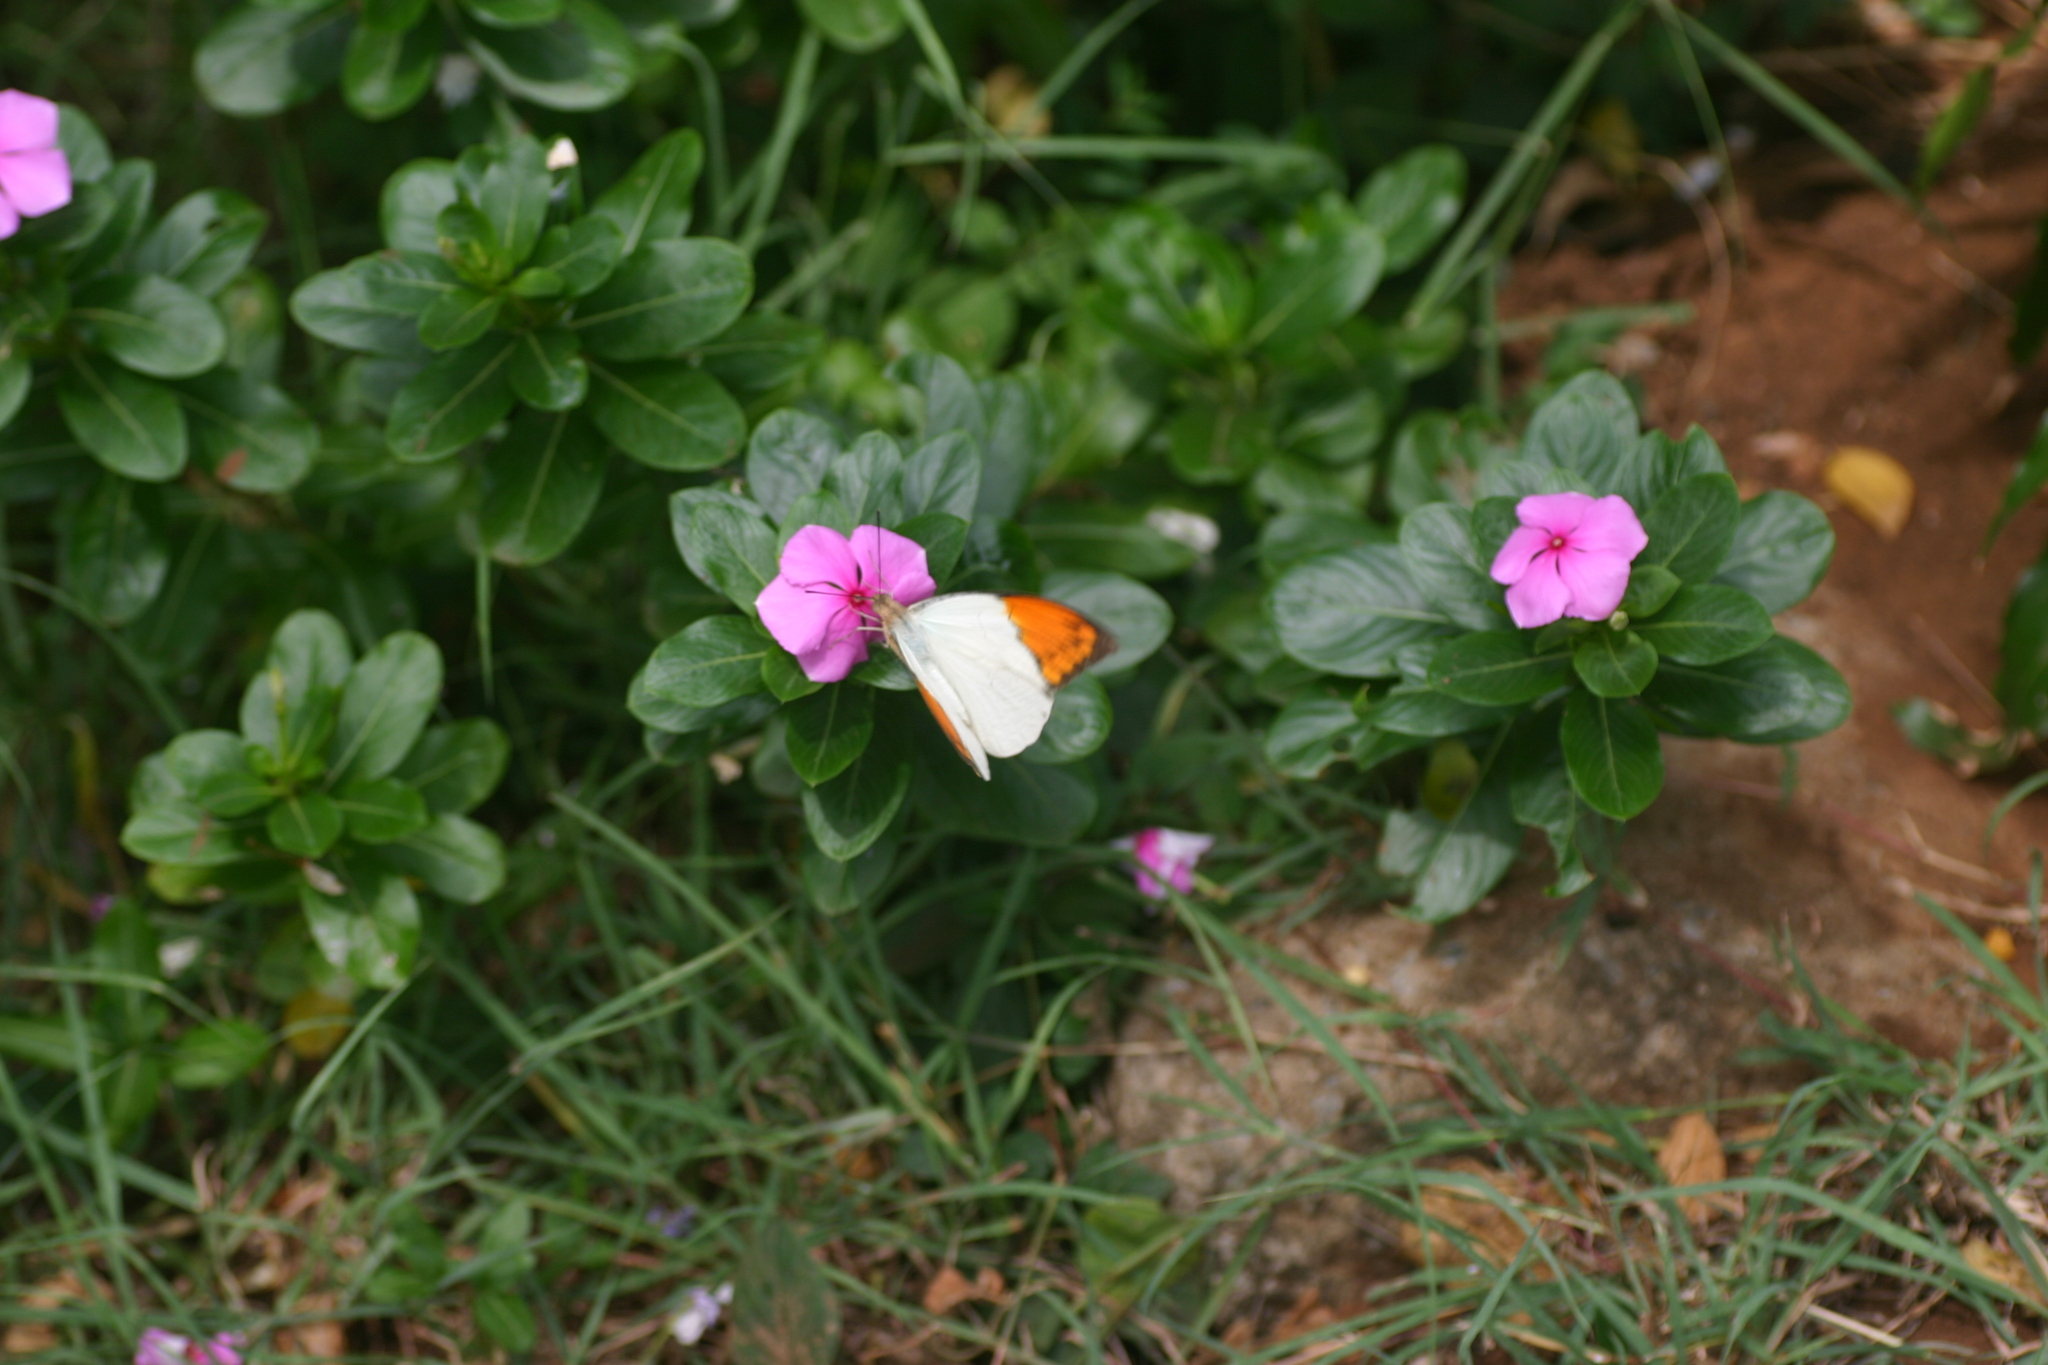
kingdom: Animalia
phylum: Arthropoda
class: Insecta
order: Lepidoptera
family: Pieridae
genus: Hebomoia
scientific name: Hebomoia glaucippe
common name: Great orange tip
